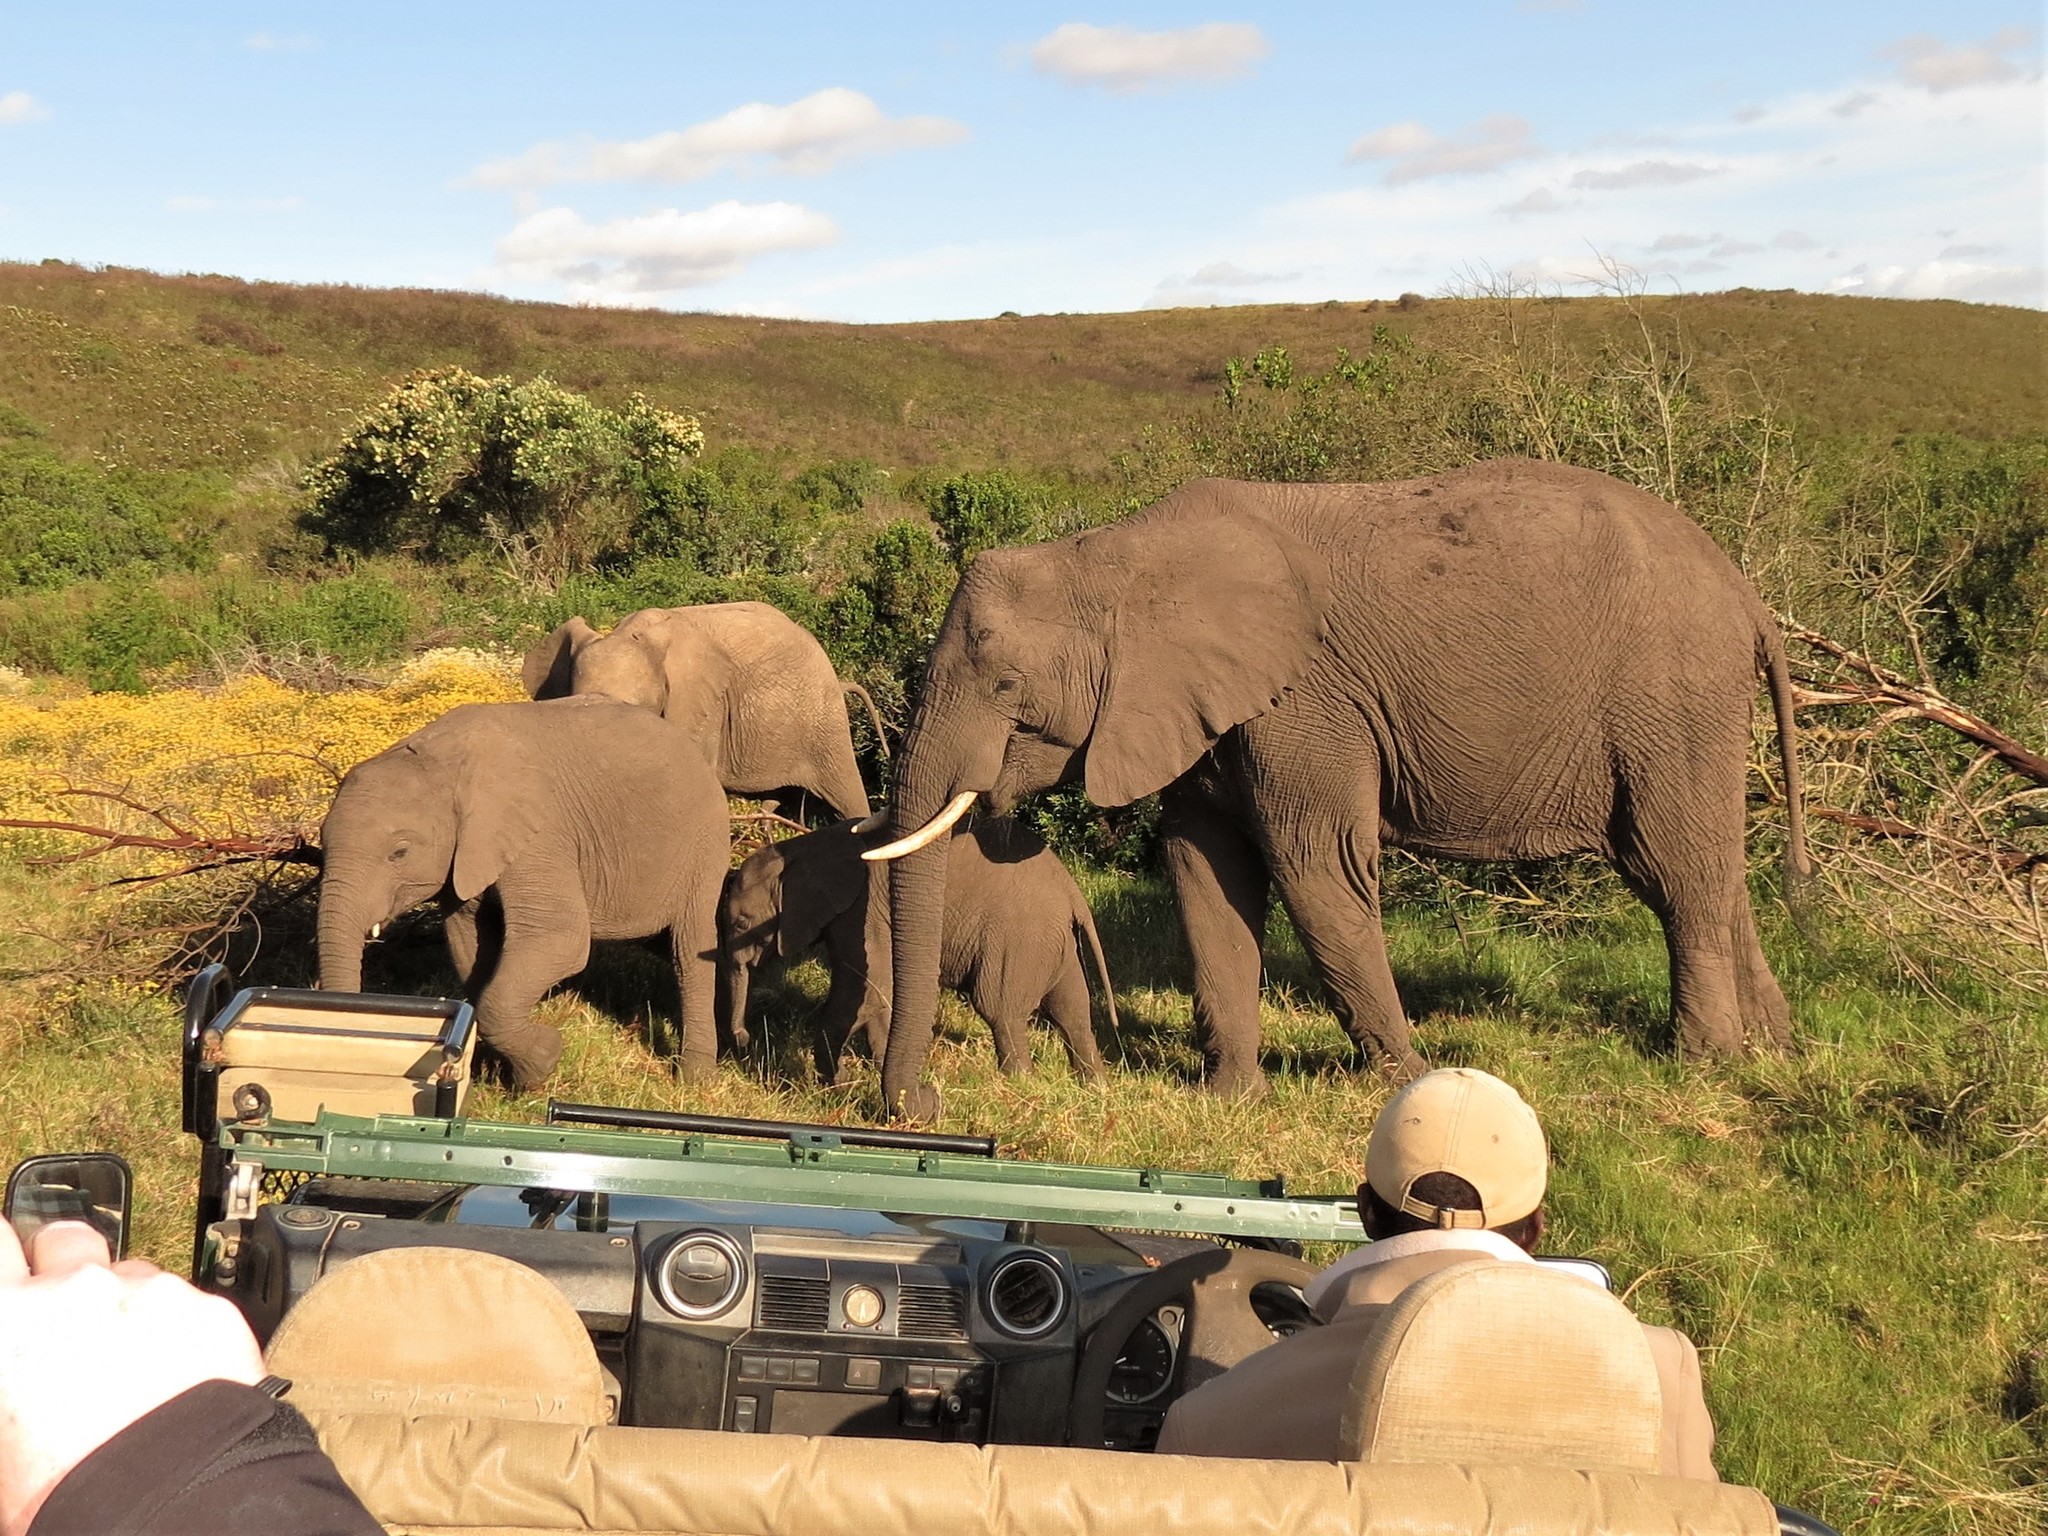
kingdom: Animalia
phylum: Chordata
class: Mammalia
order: Proboscidea
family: Elephantidae
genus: Loxodonta
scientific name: Loxodonta africana
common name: African elephant
